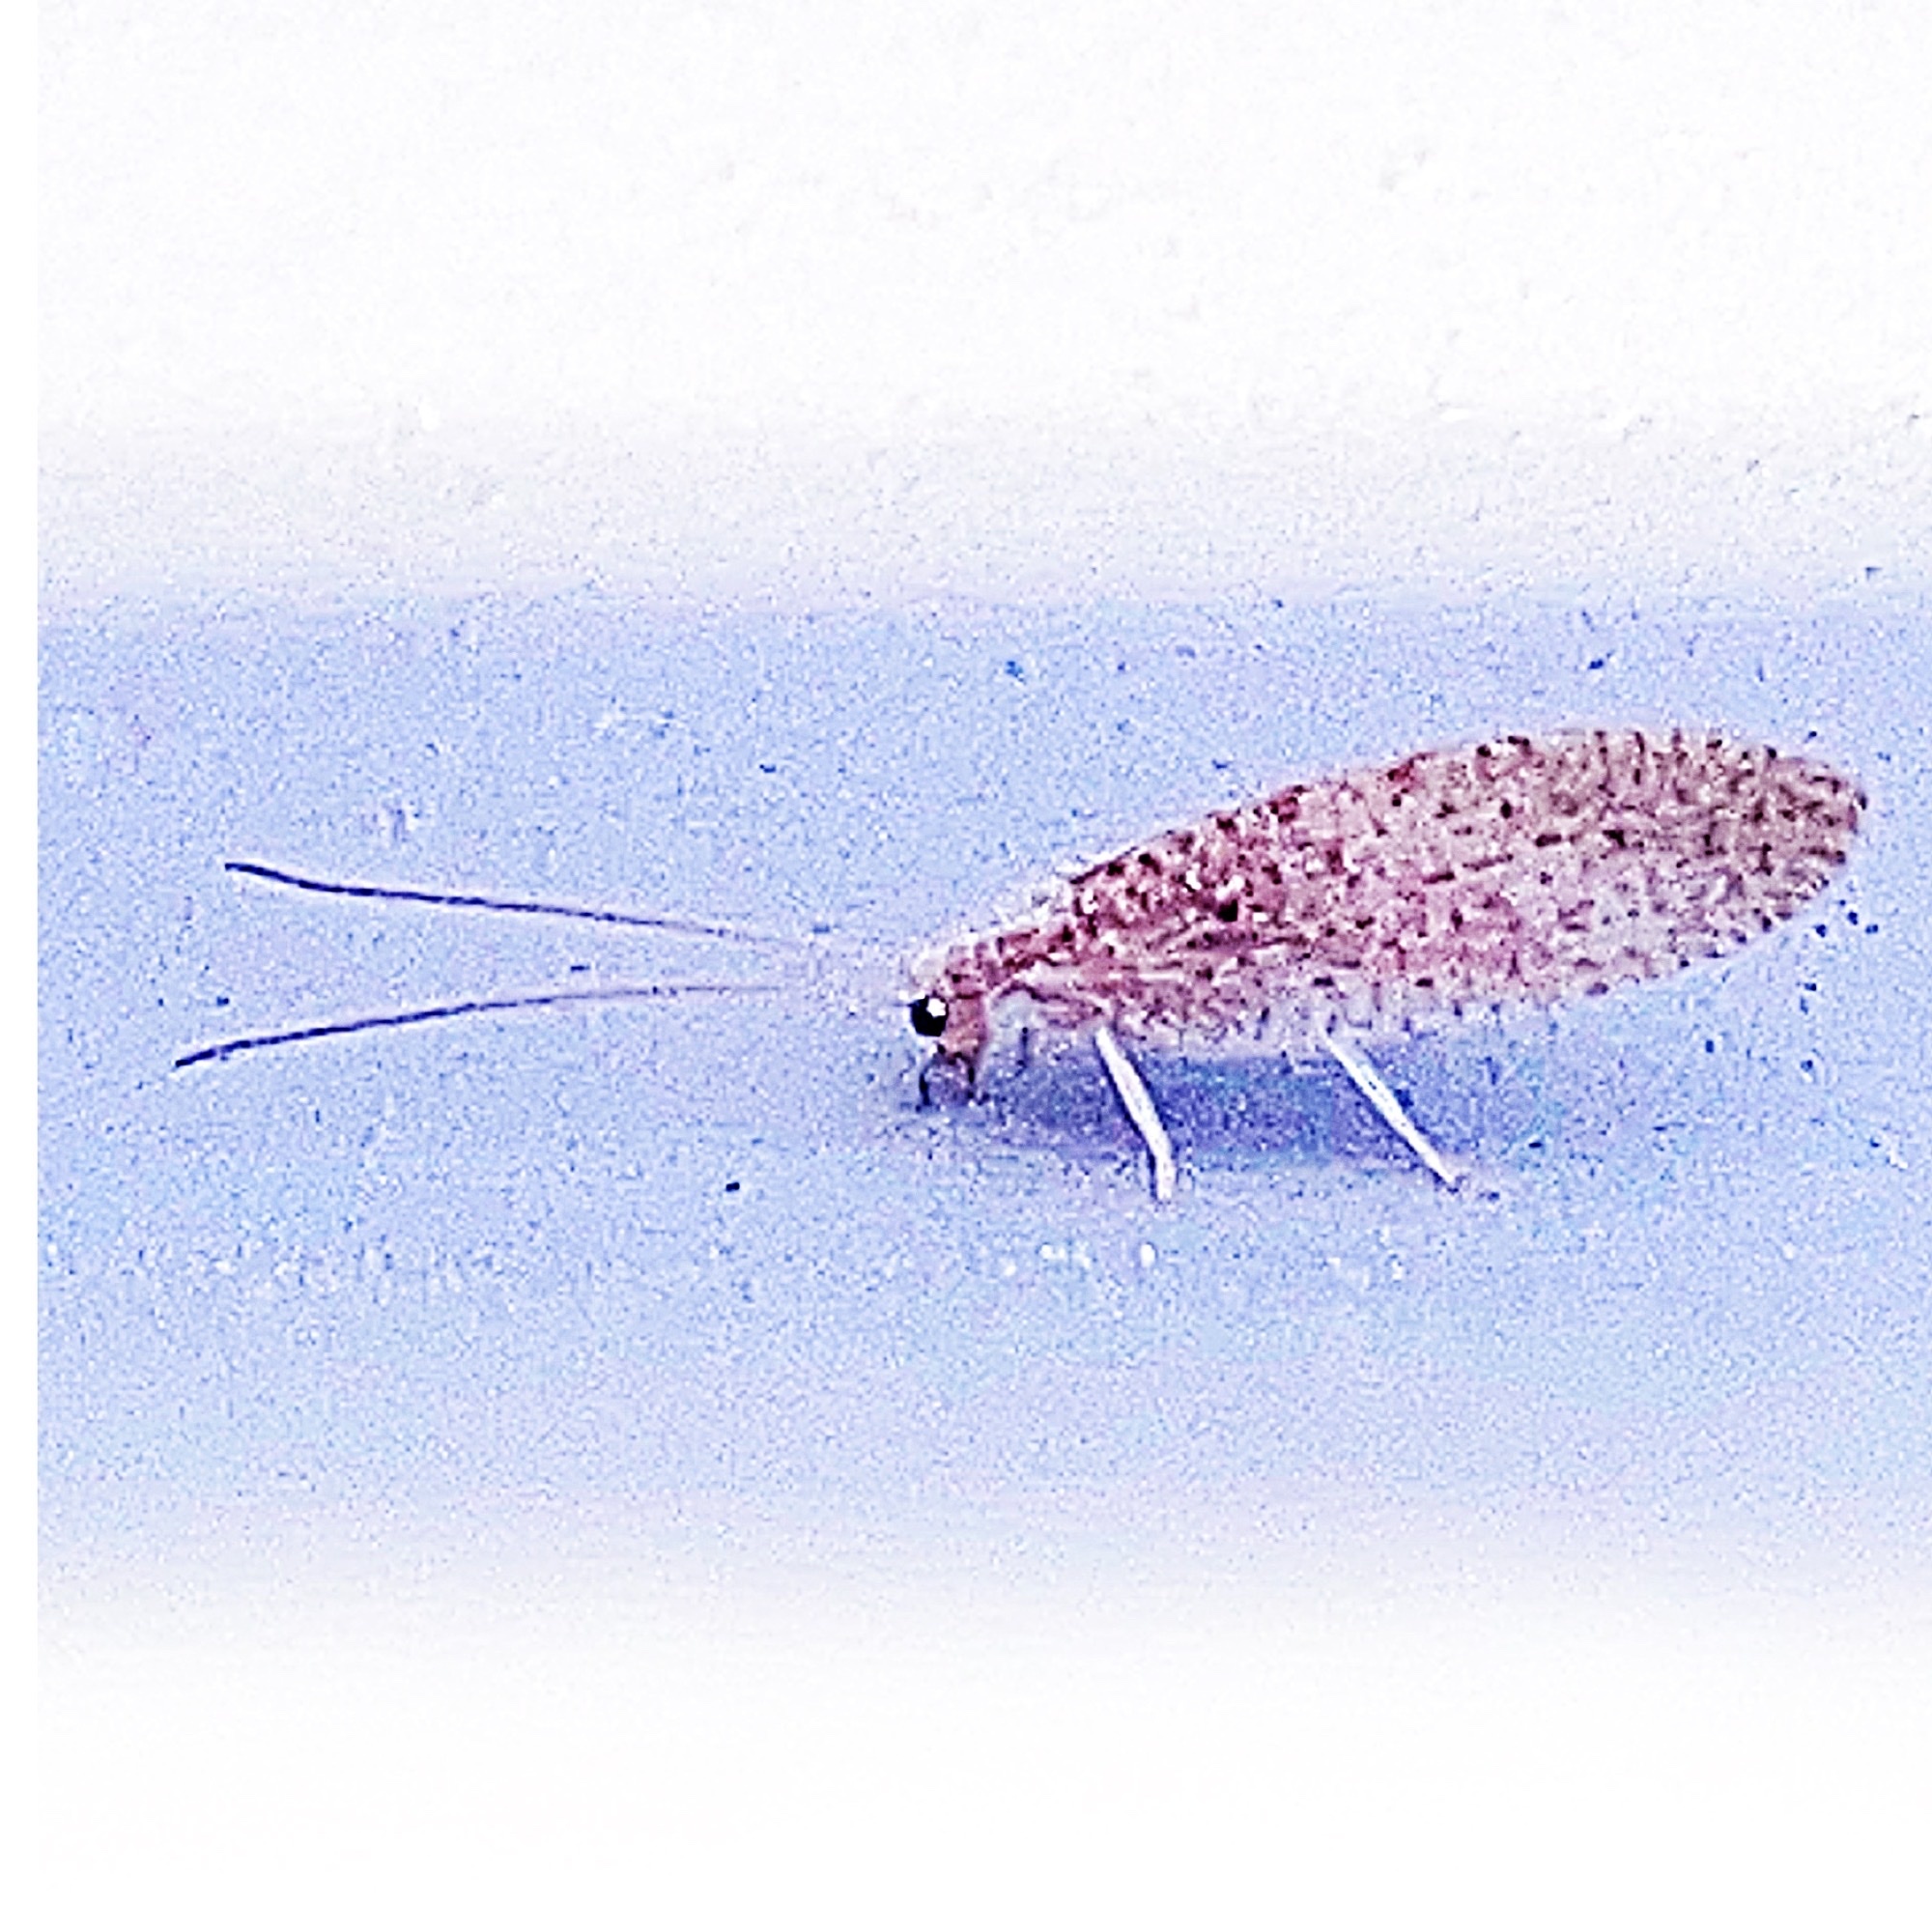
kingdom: Animalia
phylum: Arthropoda
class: Insecta
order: Neuroptera
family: Hemerobiidae
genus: Micromus
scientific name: Micromus subanticus
